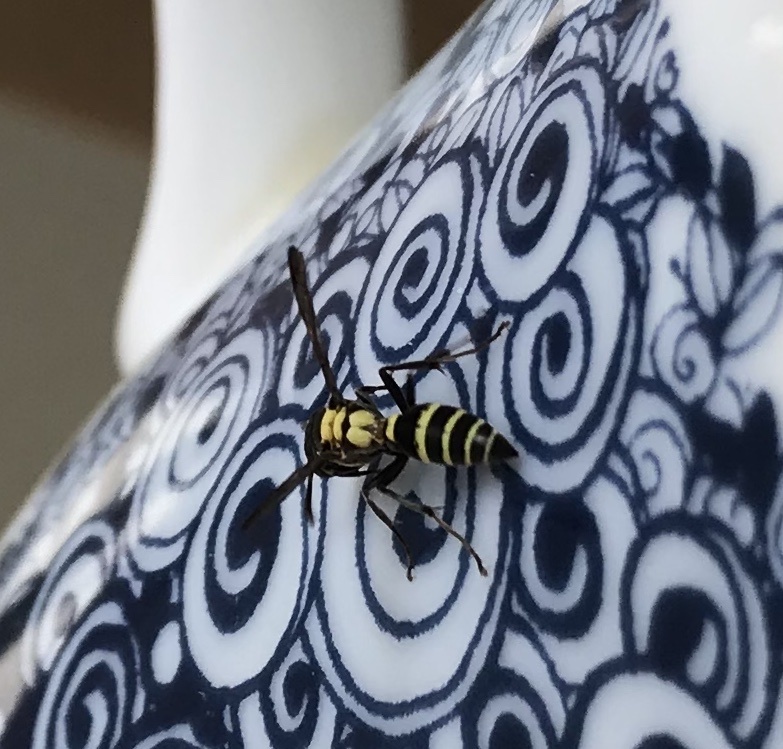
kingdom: Animalia
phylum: Arthropoda
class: Insecta
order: Hymenoptera
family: Eumenidae
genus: Polybia
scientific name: Polybia occidentalis
